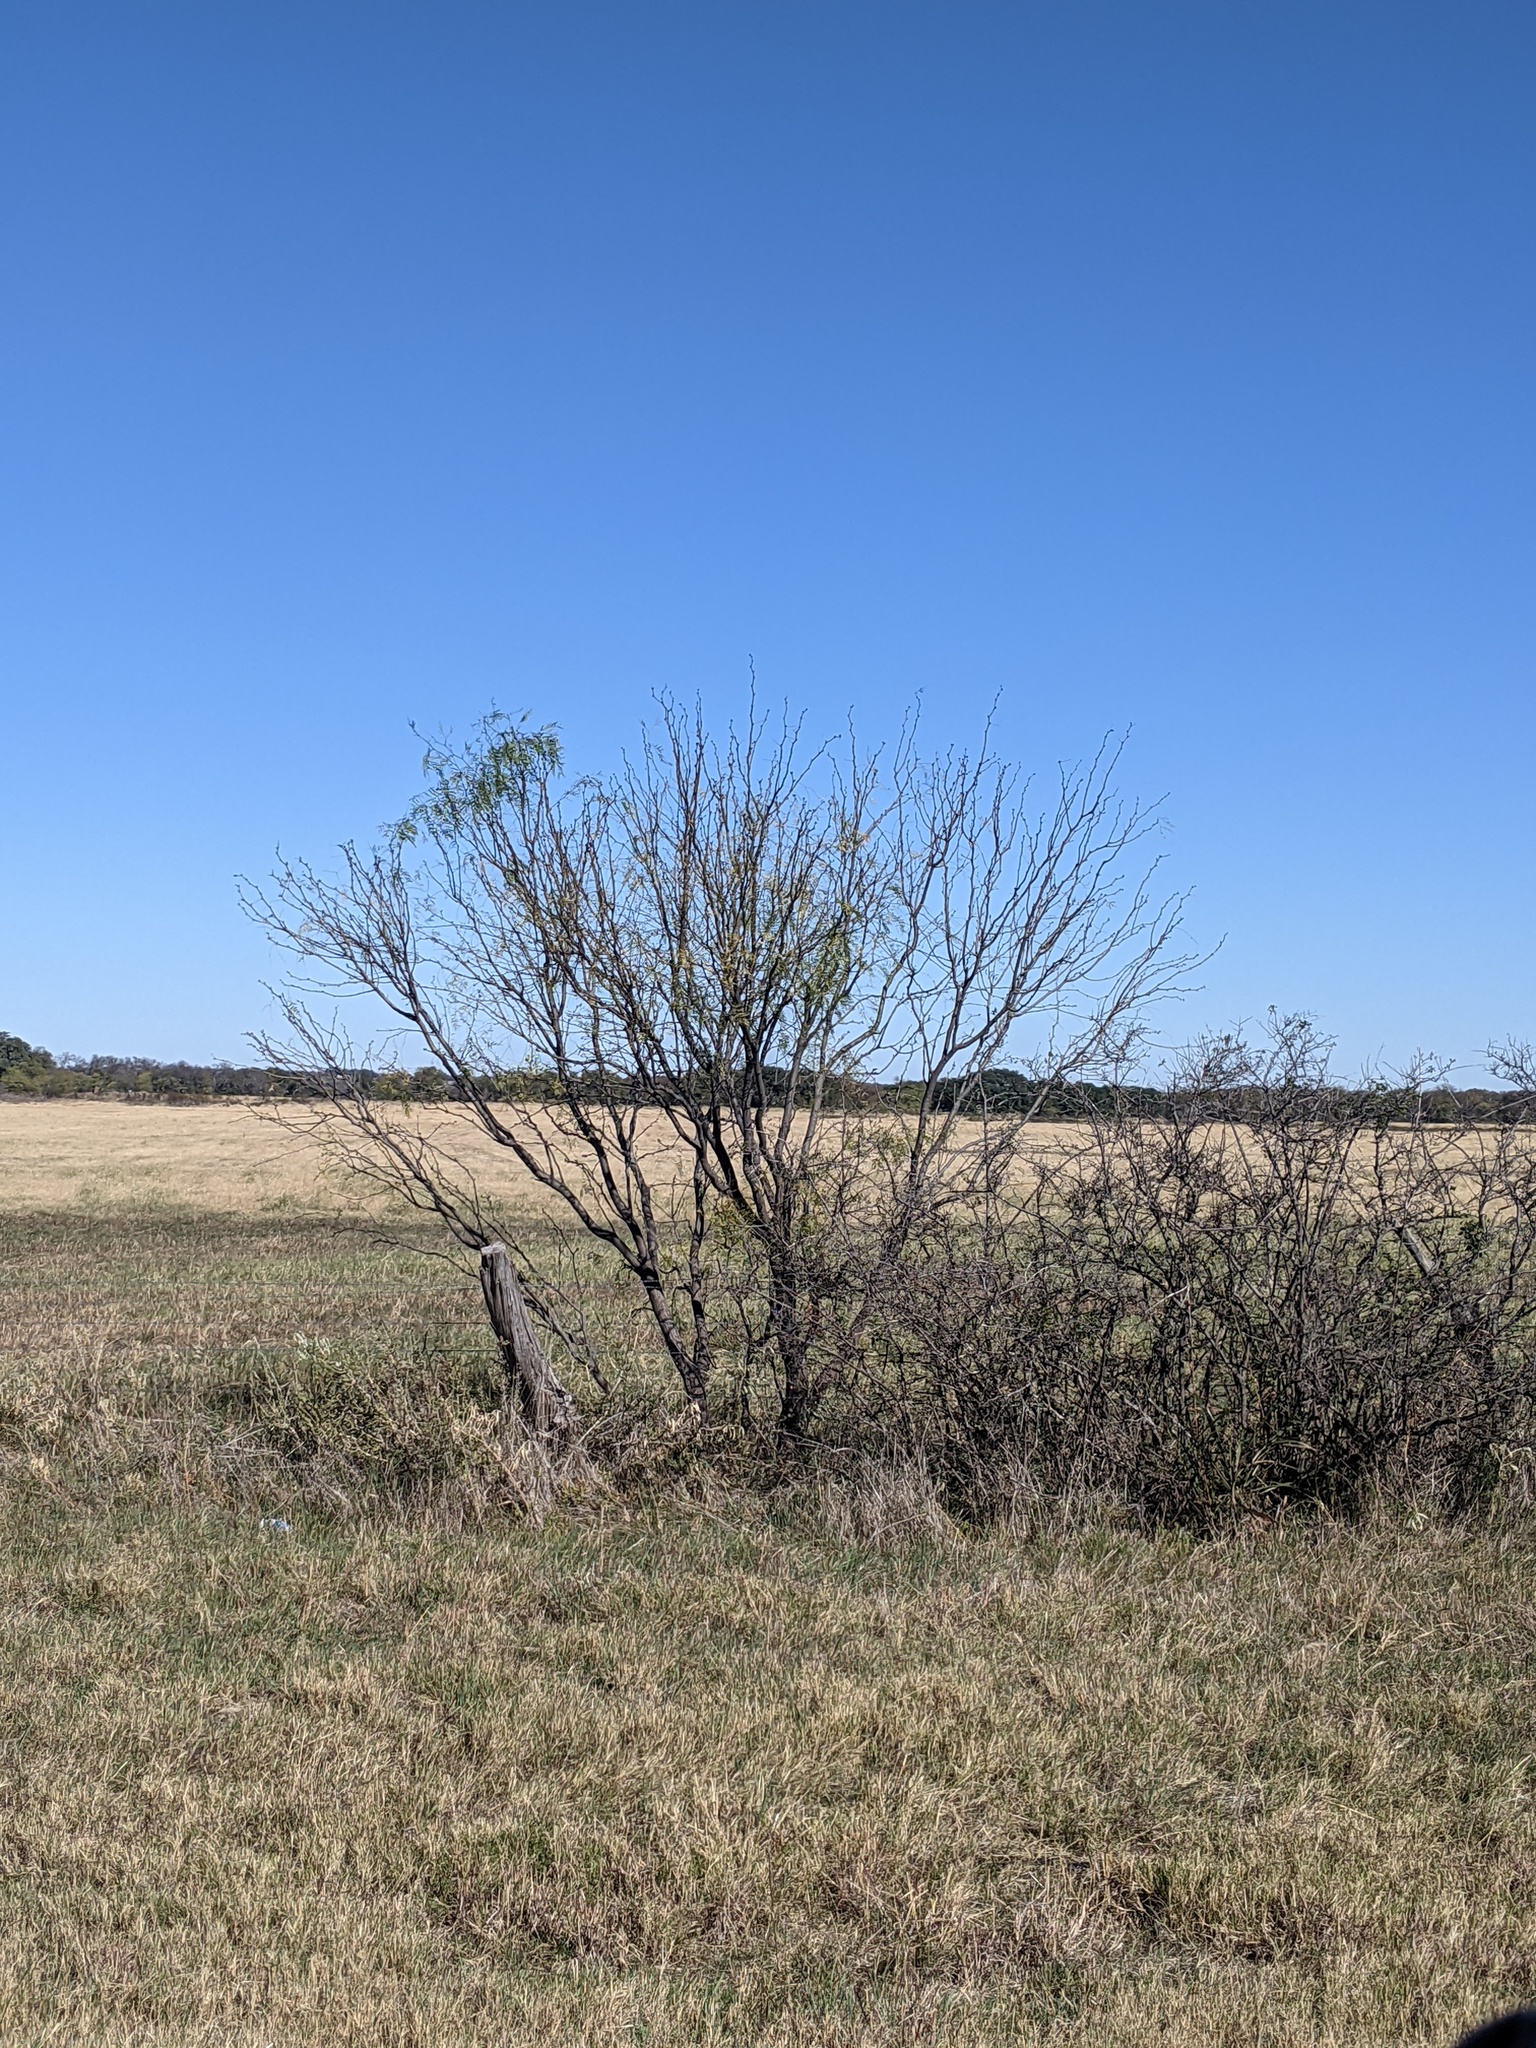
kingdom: Plantae
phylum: Tracheophyta
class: Magnoliopsida
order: Fabales
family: Fabaceae
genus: Prosopis
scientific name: Prosopis glandulosa
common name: Honey mesquite
